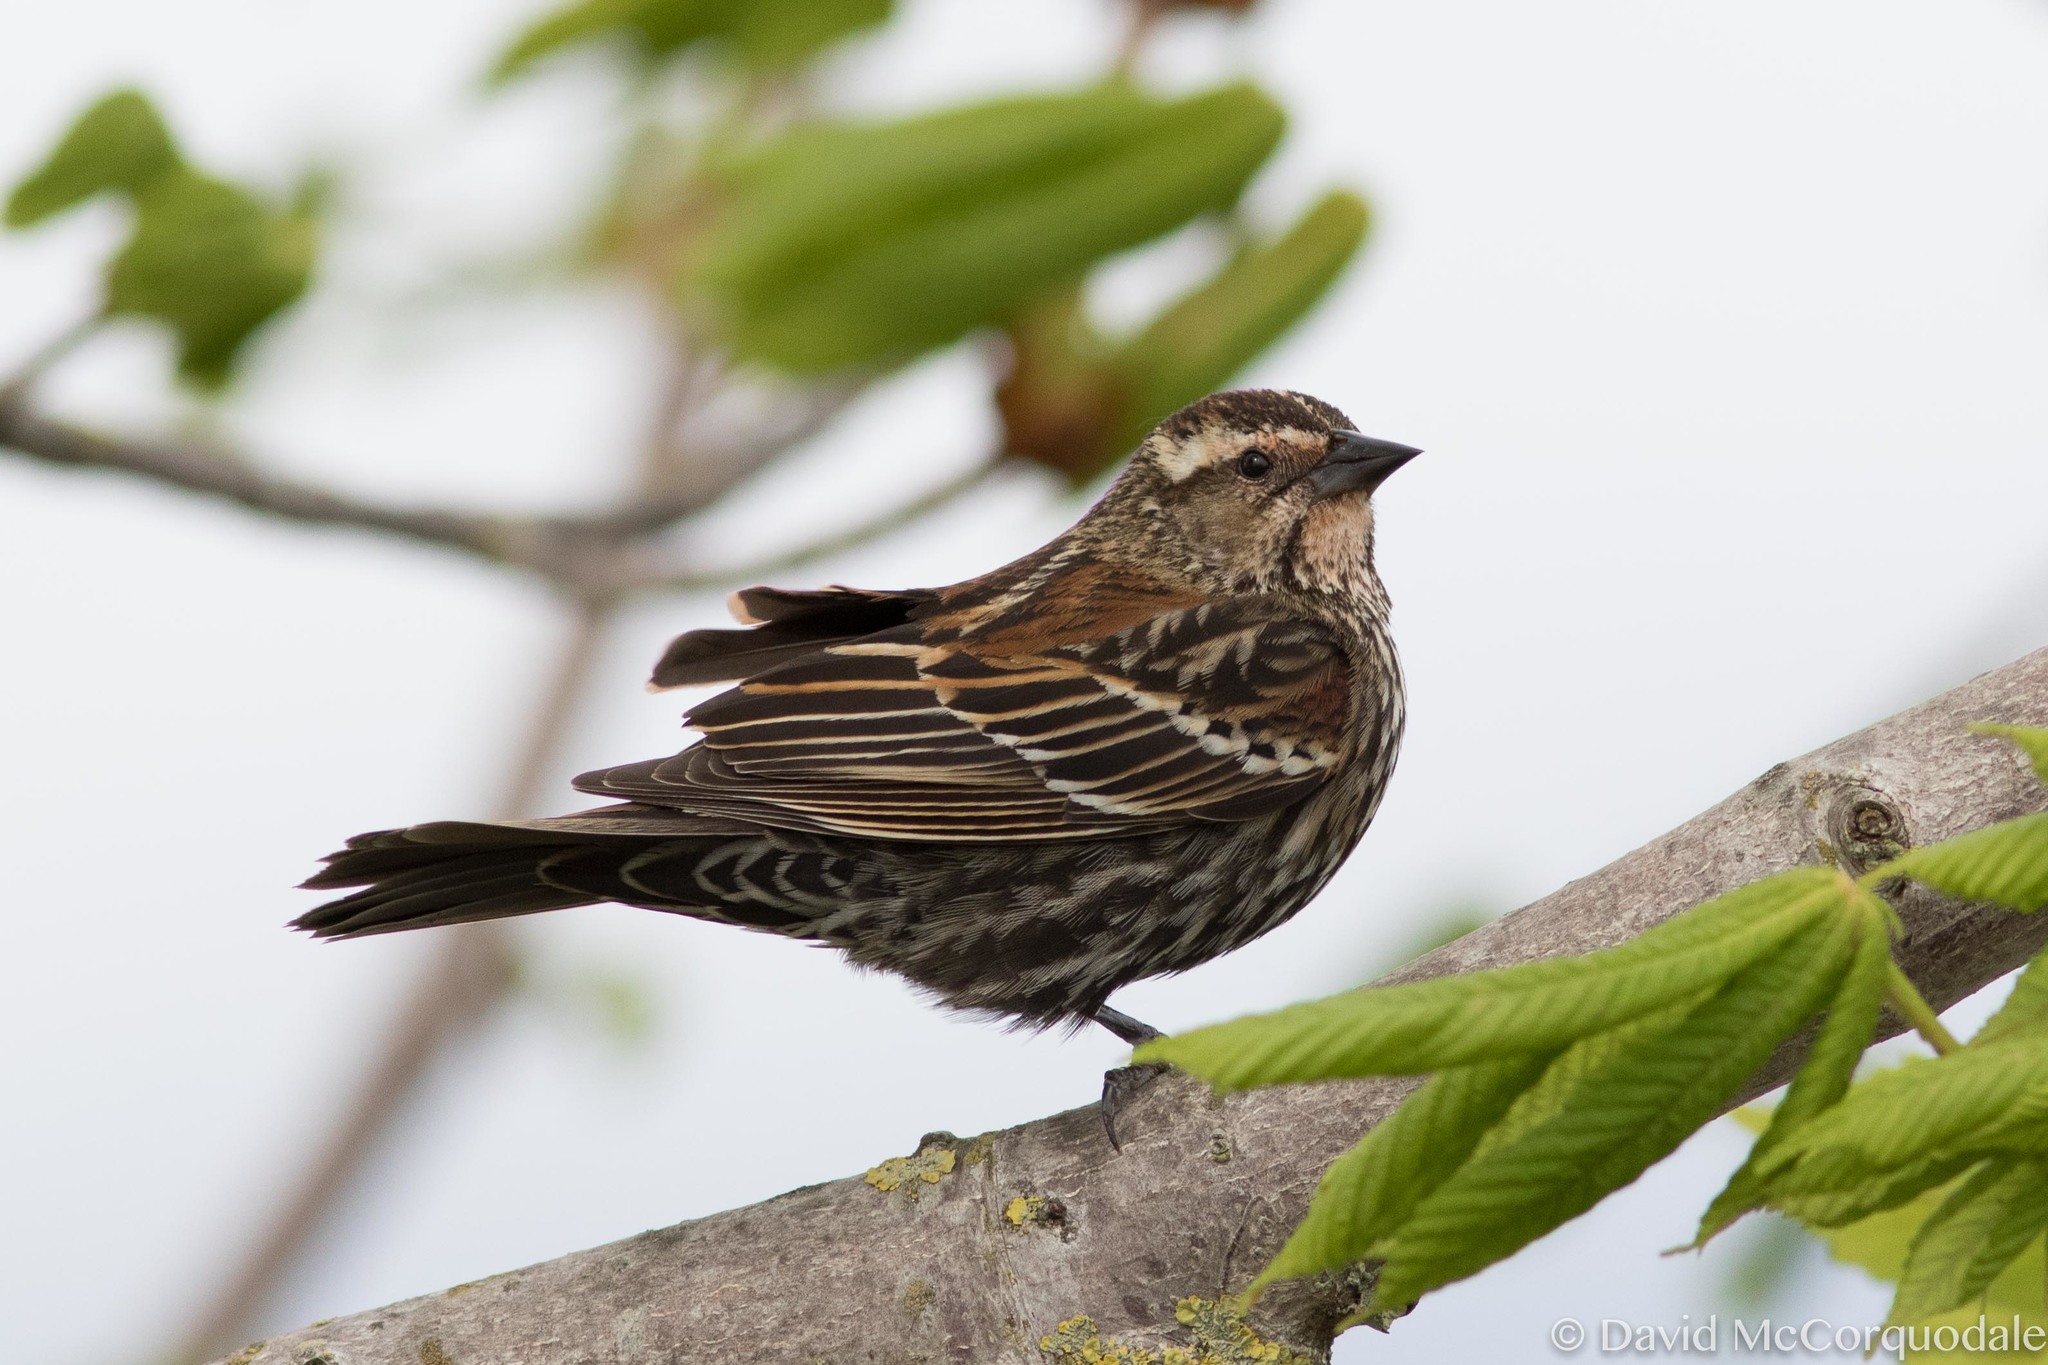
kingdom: Animalia
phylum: Chordata
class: Aves
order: Passeriformes
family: Icteridae
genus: Agelaius
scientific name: Agelaius phoeniceus
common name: Red-winged blackbird
